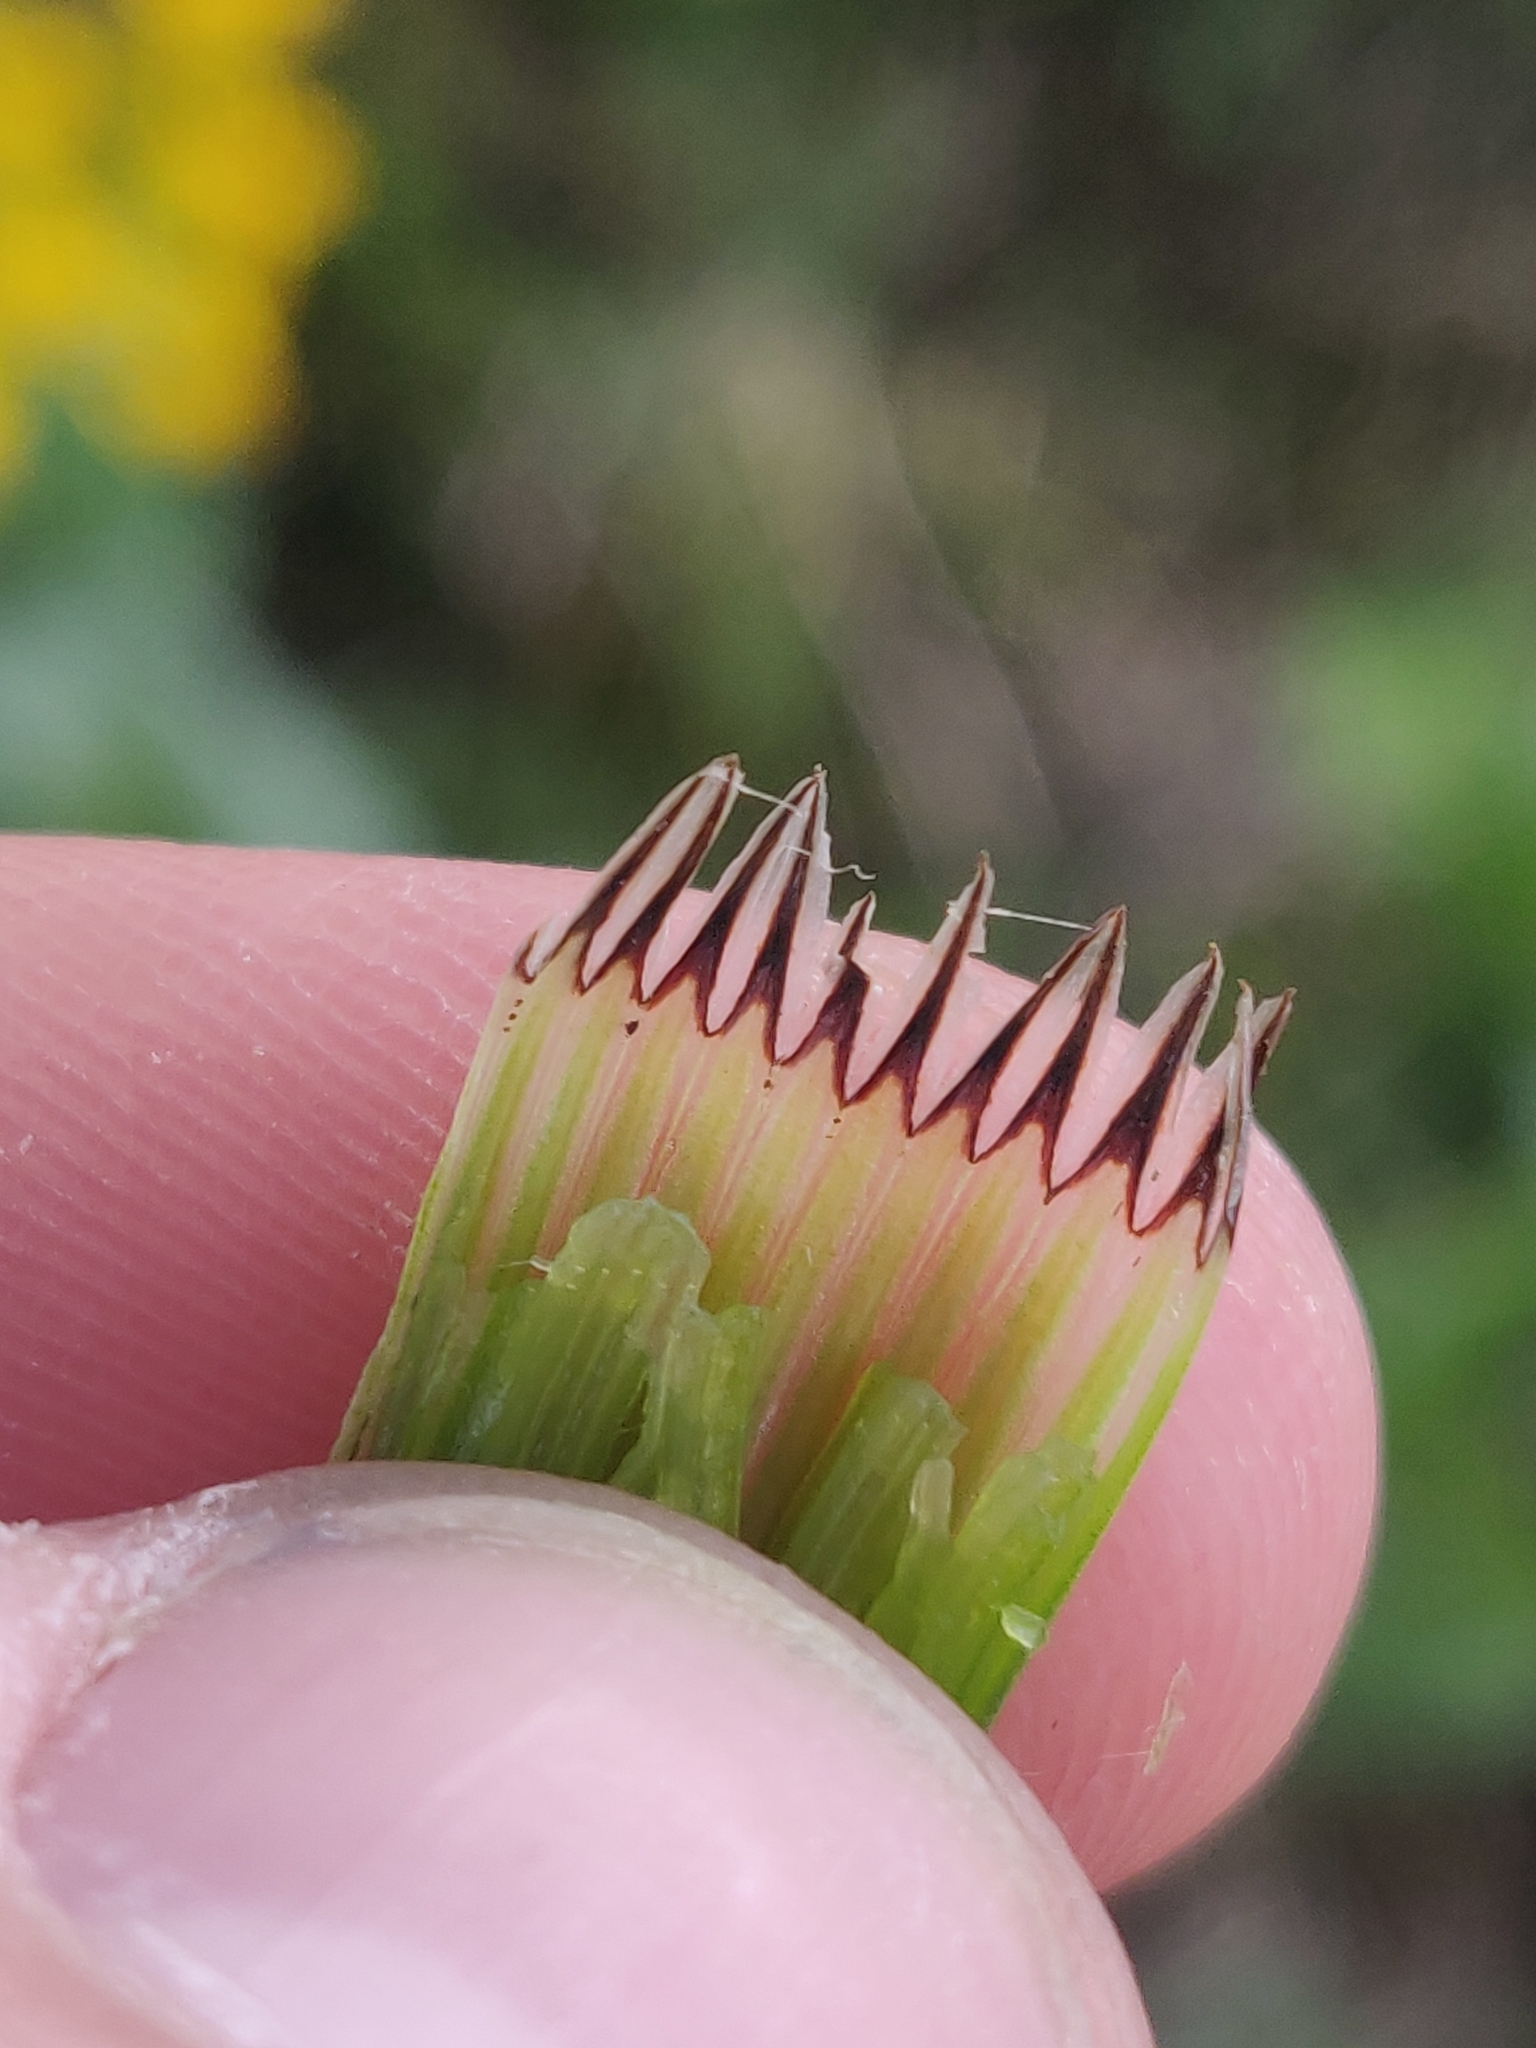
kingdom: Plantae
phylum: Tracheophyta
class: Polypodiopsida
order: Equisetales
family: Equisetaceae
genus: Equisetum
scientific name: Equisetum palustre
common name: Marsh horsetail
